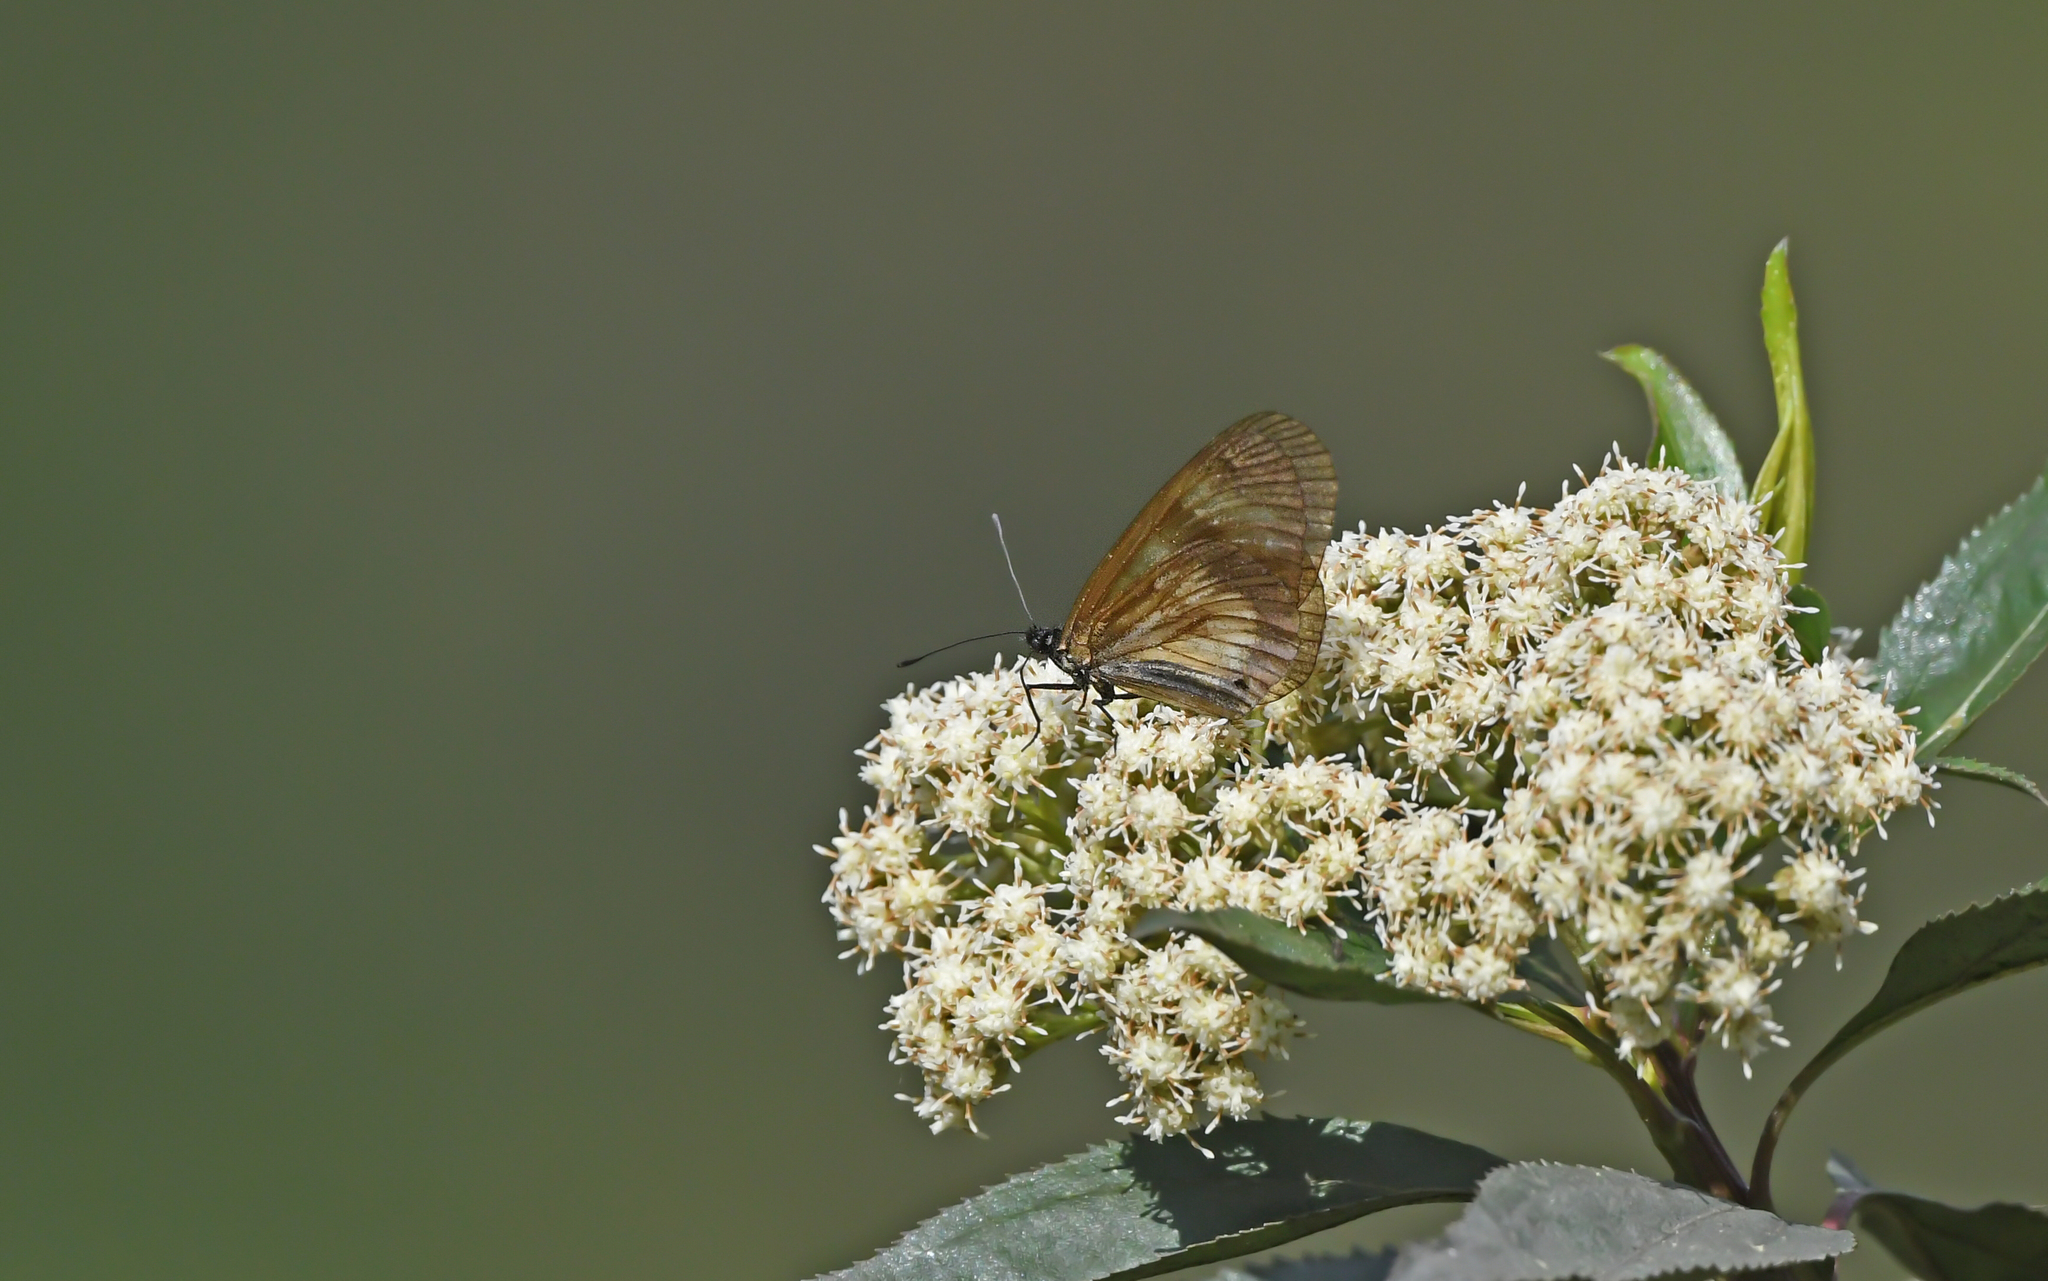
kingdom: Animalia
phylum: Arthropoda
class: Insecta
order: Lepidoptera
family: Nymphalidae
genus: Actinote
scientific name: Actinote negra
